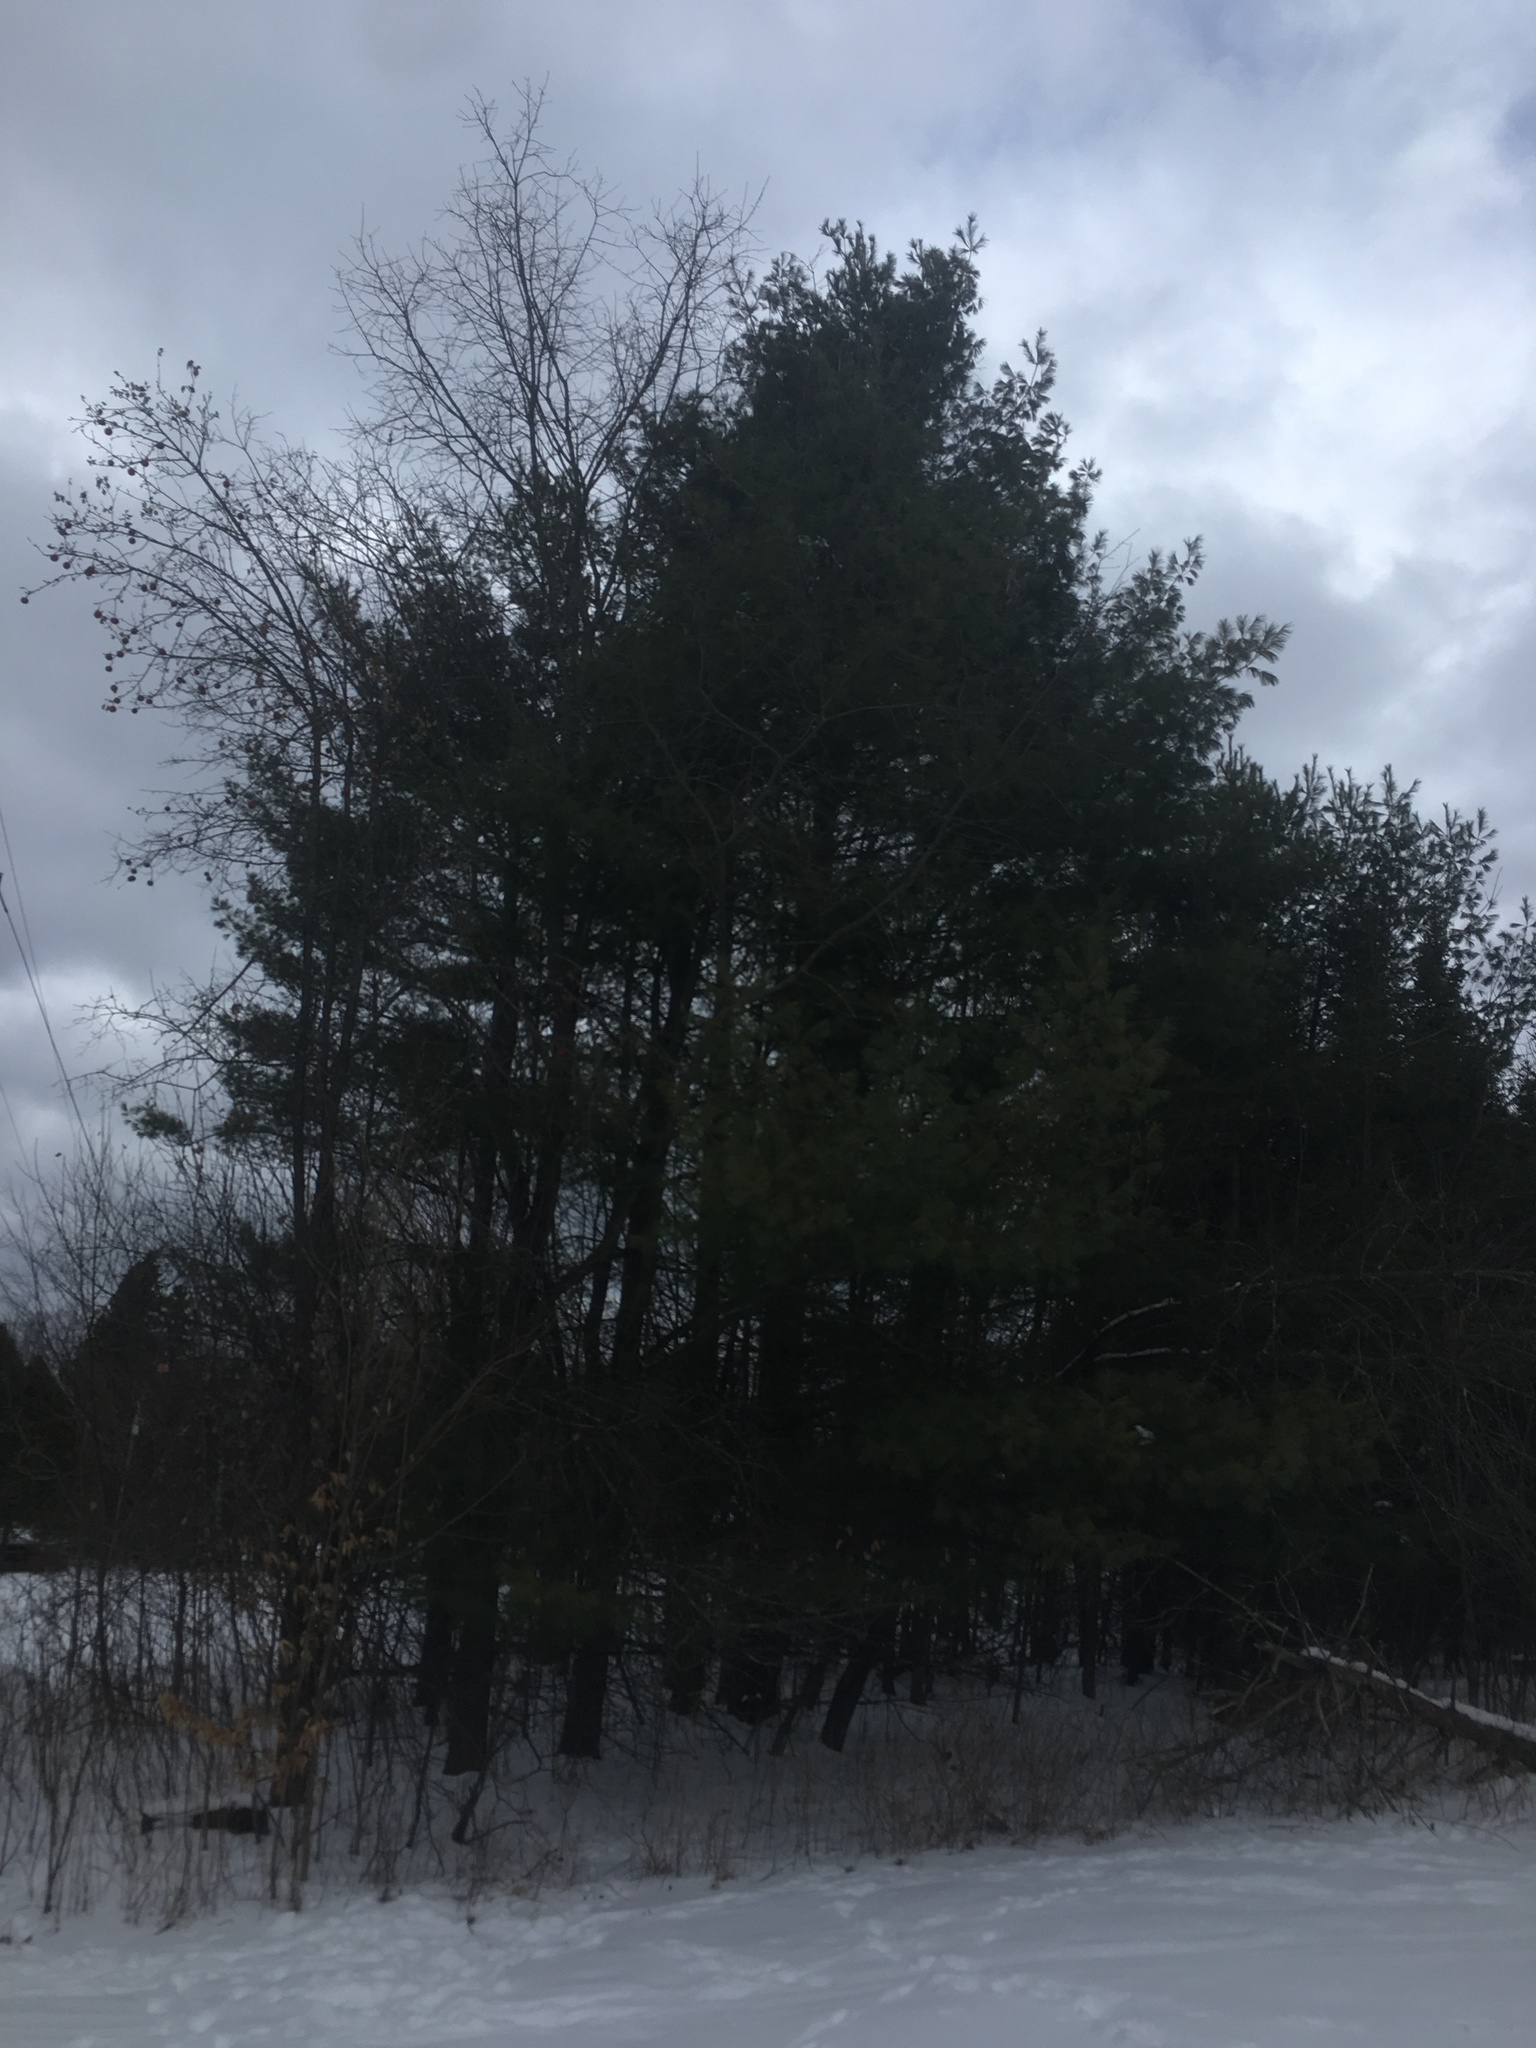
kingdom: Plantae
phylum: Tracheophyta
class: Pinopsida
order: Pinales
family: Pinaceae
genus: Pinus
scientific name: Pinus strobus
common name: Weymouth pine
